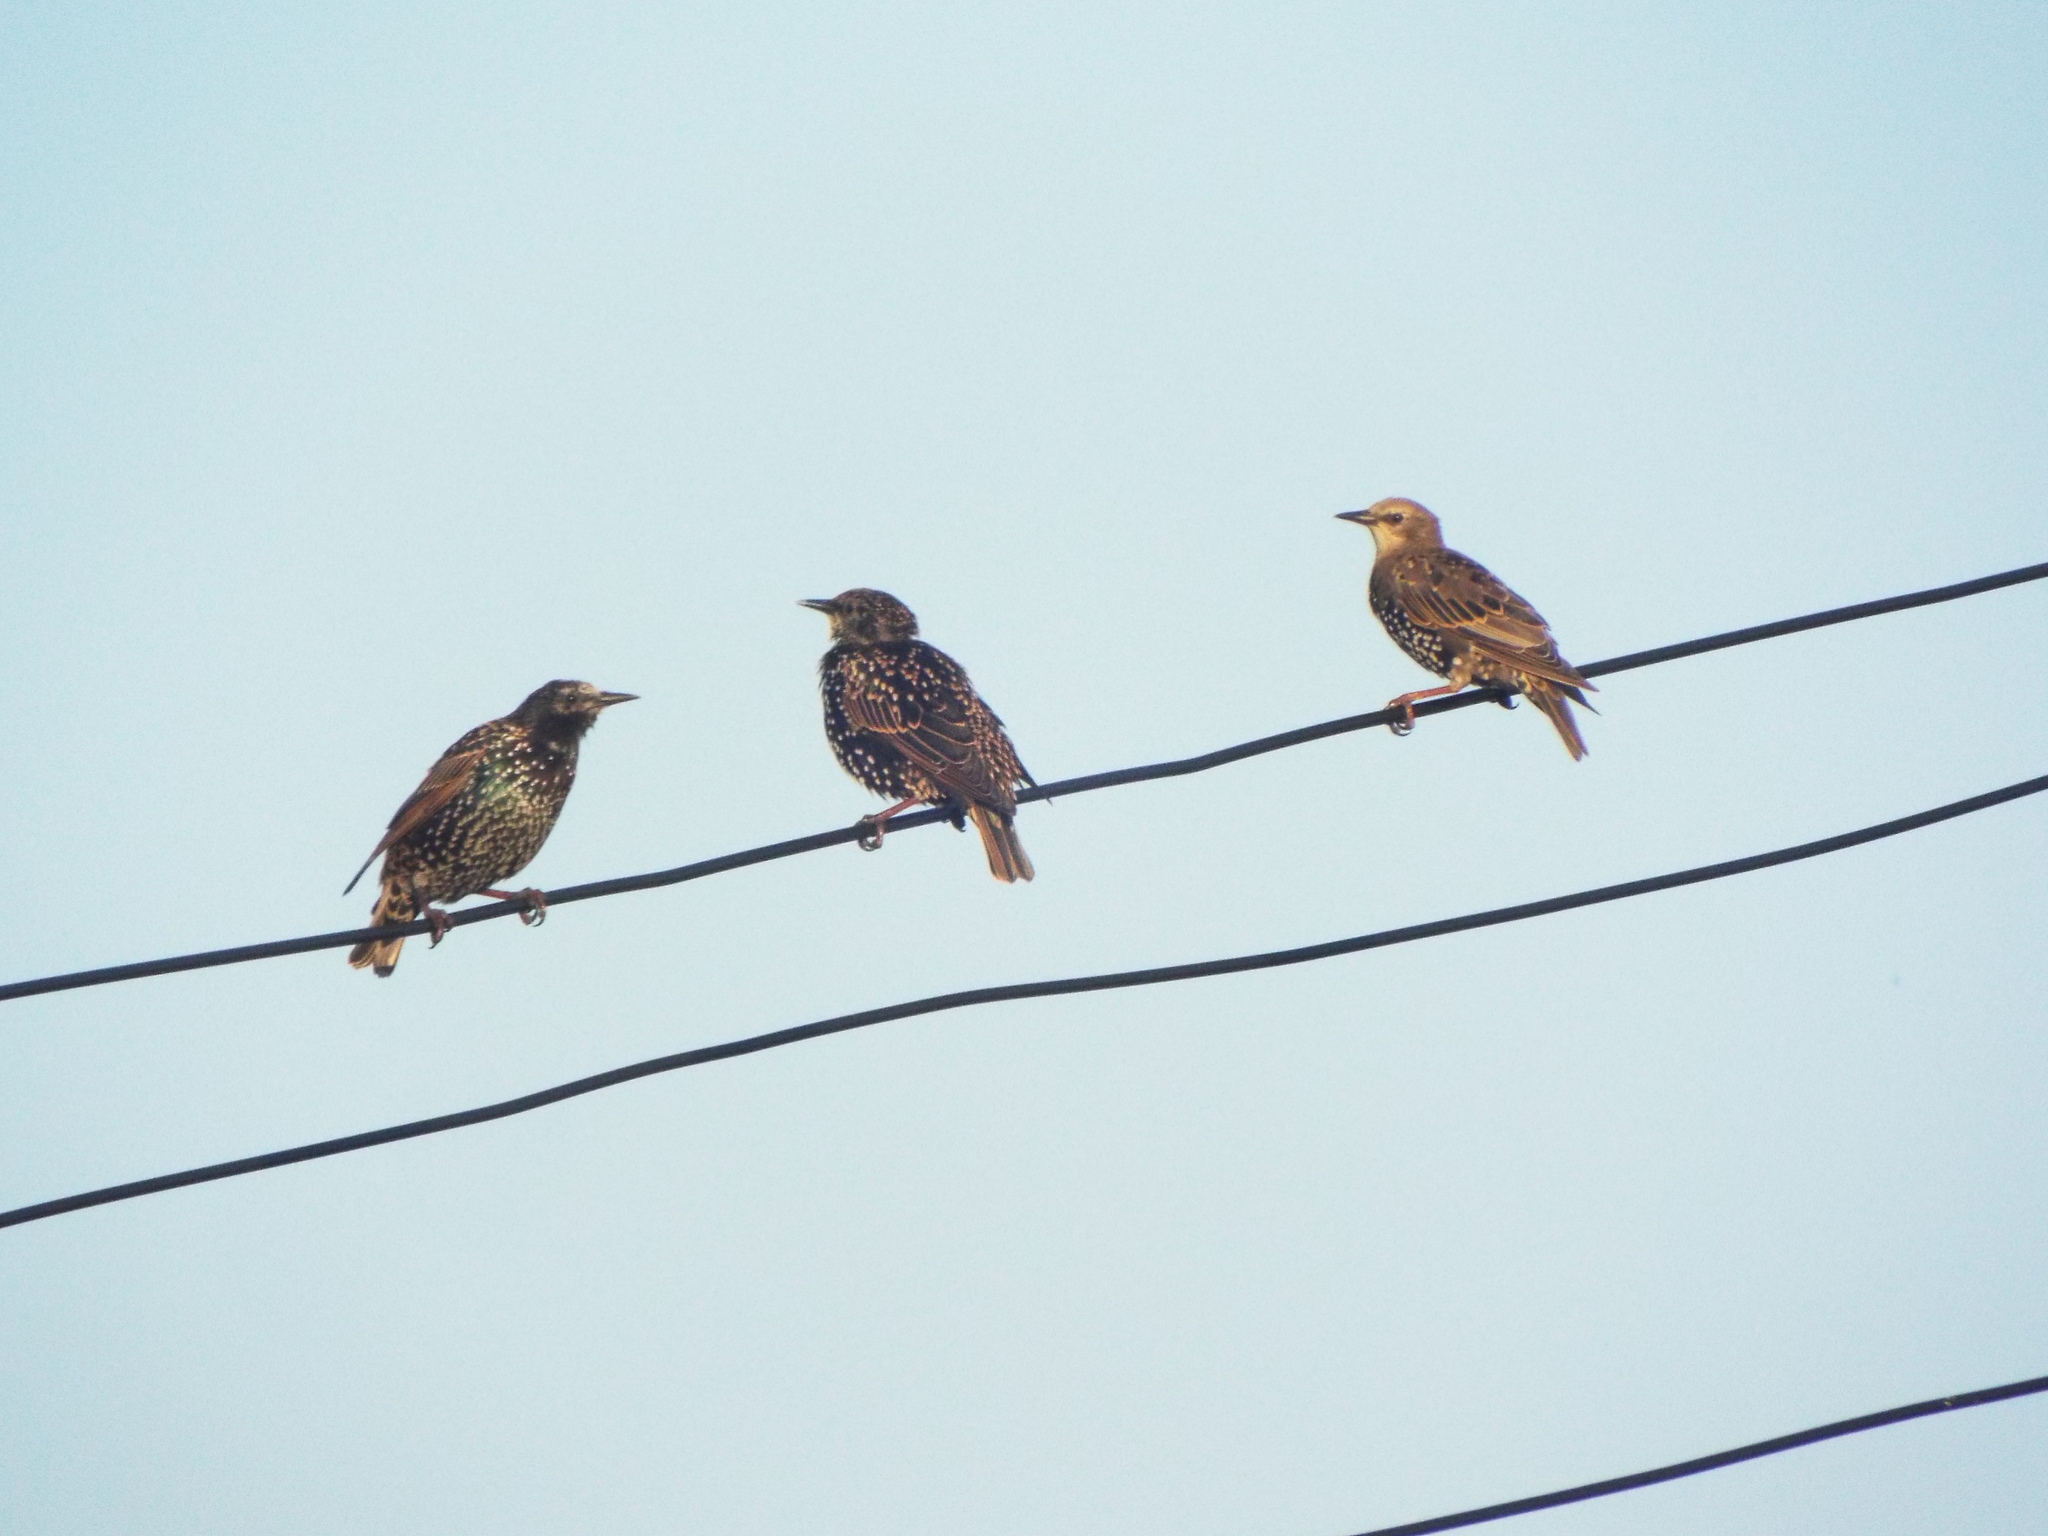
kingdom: Animalia
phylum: Chordata
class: Aves
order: Passeriformes
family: Sturnidae
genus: Sturnus
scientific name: Sturnus vulgaris
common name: Common starling
